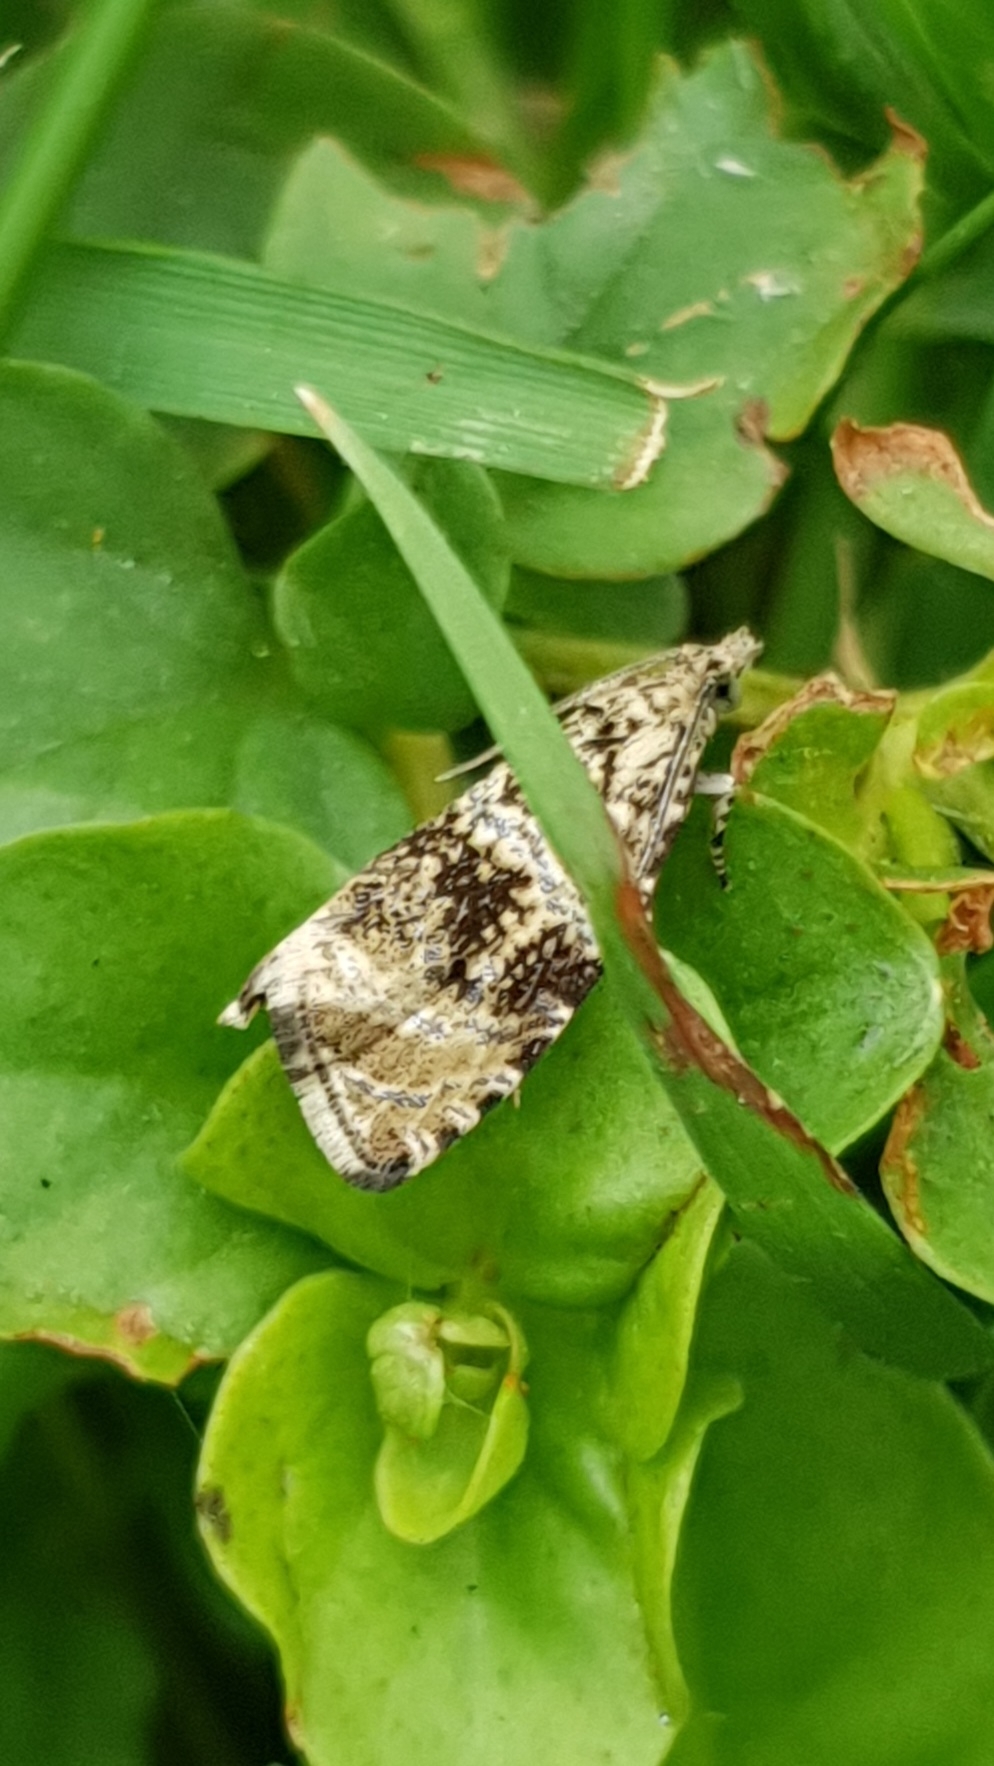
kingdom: Animalia
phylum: Arthropoda
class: Insecta
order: Lepidoptera
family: Tortricidae
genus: Syricoris
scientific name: Syricoris lacunana
